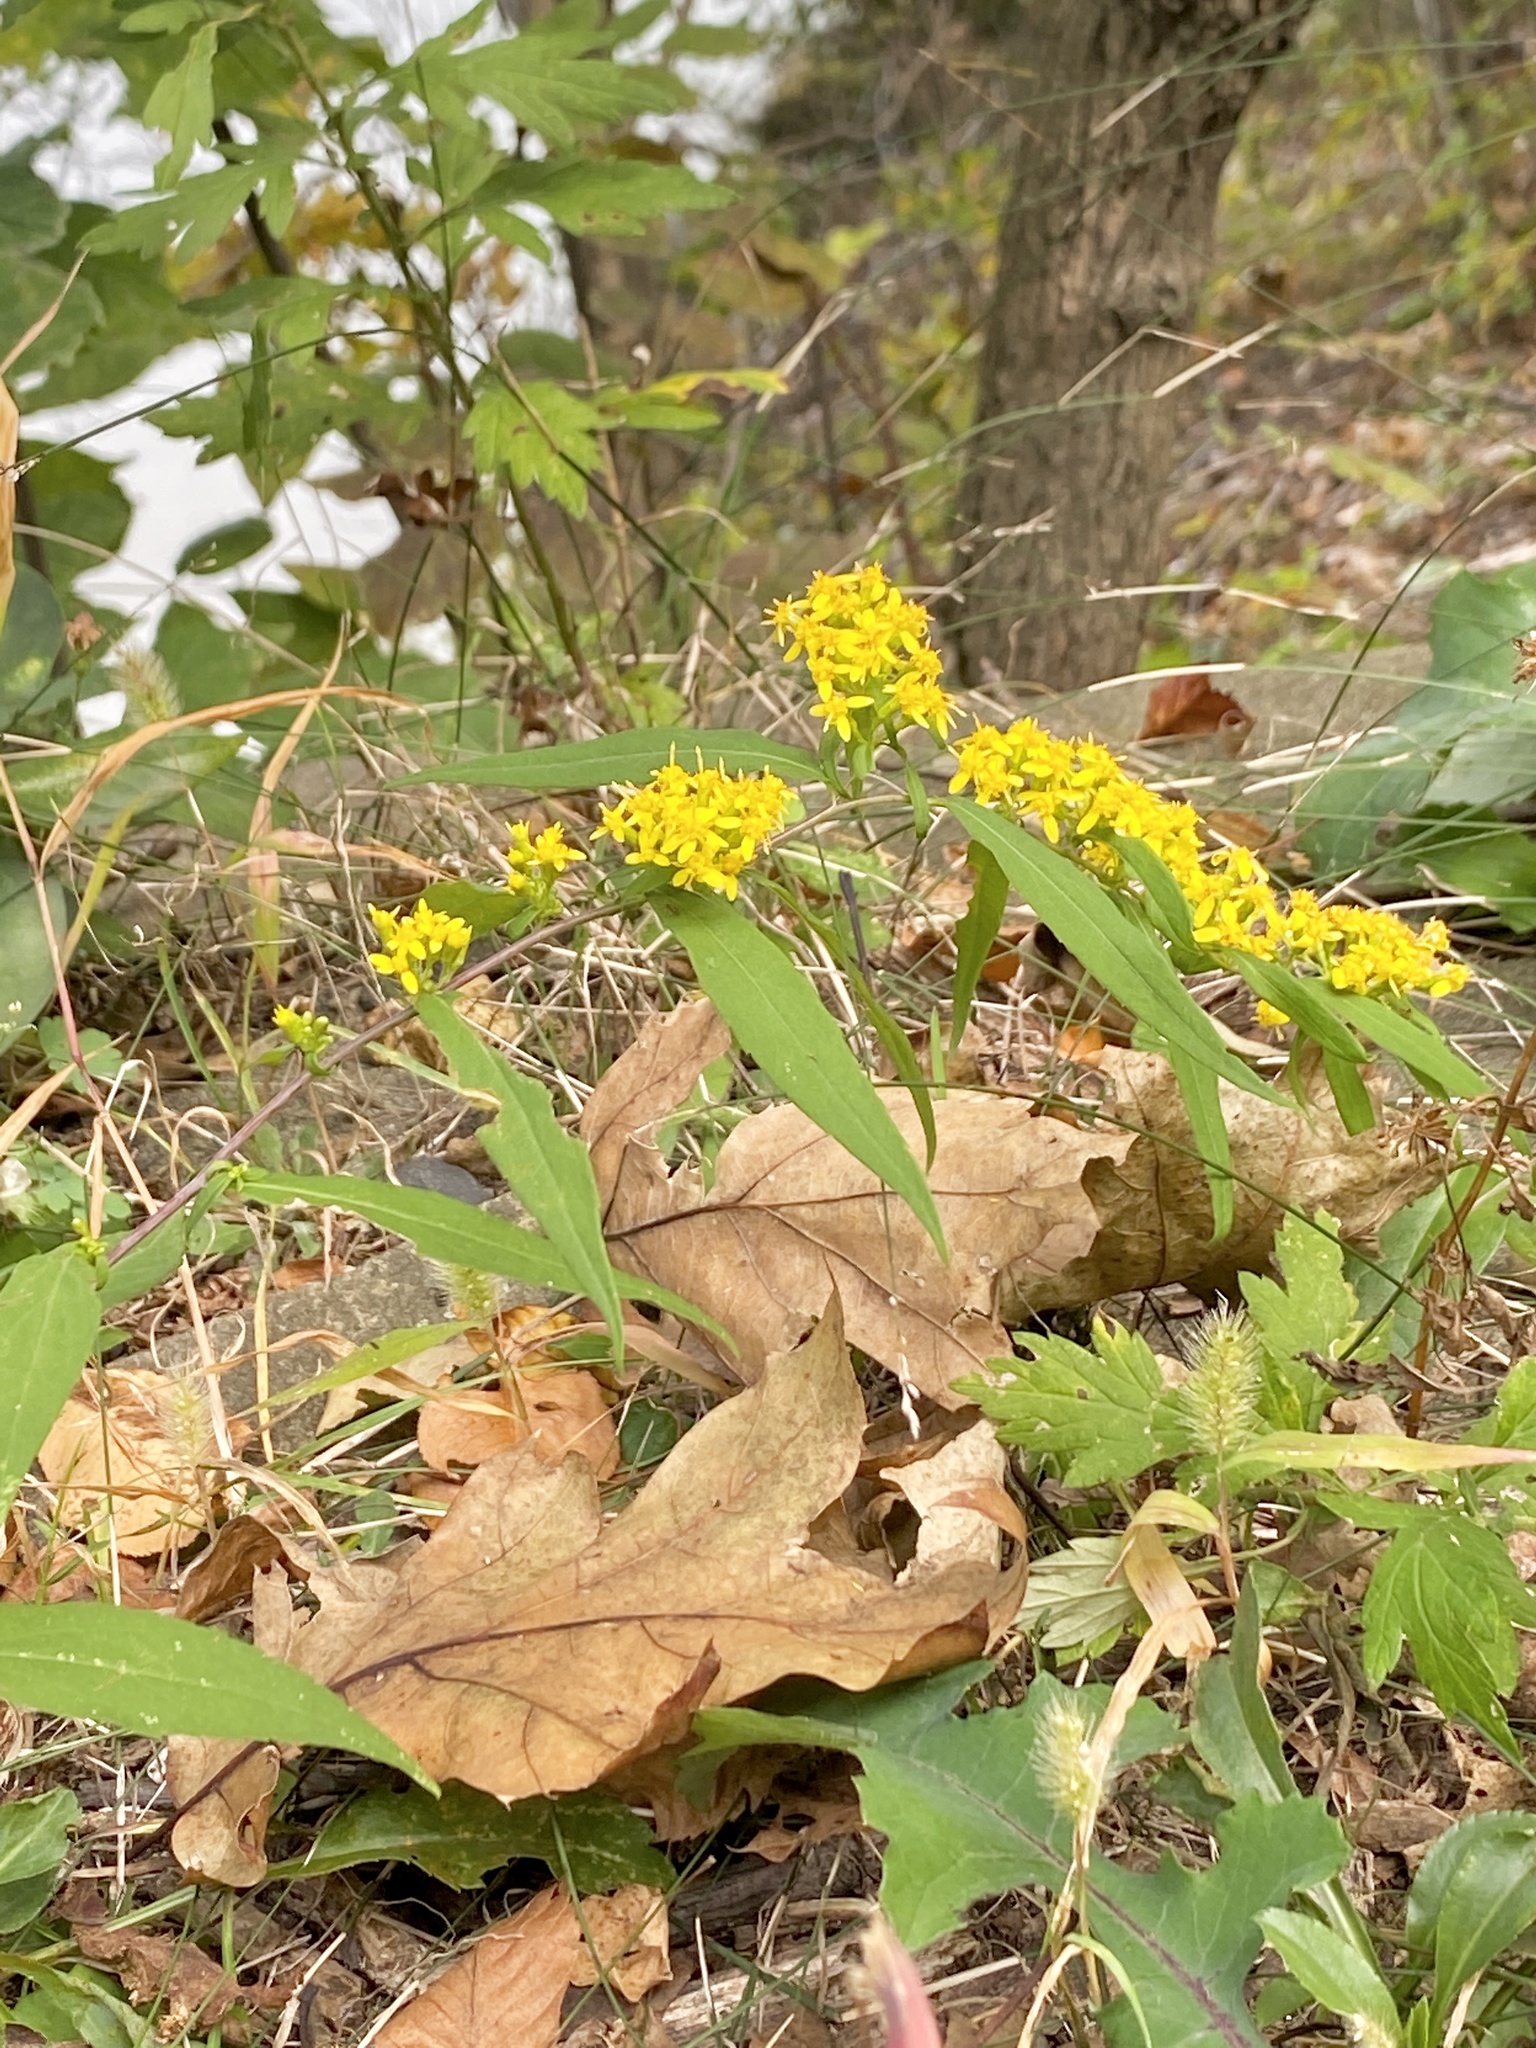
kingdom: Plantae
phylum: Tracheophyta
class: Magnoliopsida
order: Asterales
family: Asteraceae
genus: Solidago
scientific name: Solidago caesia
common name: Woodland goldenrod
